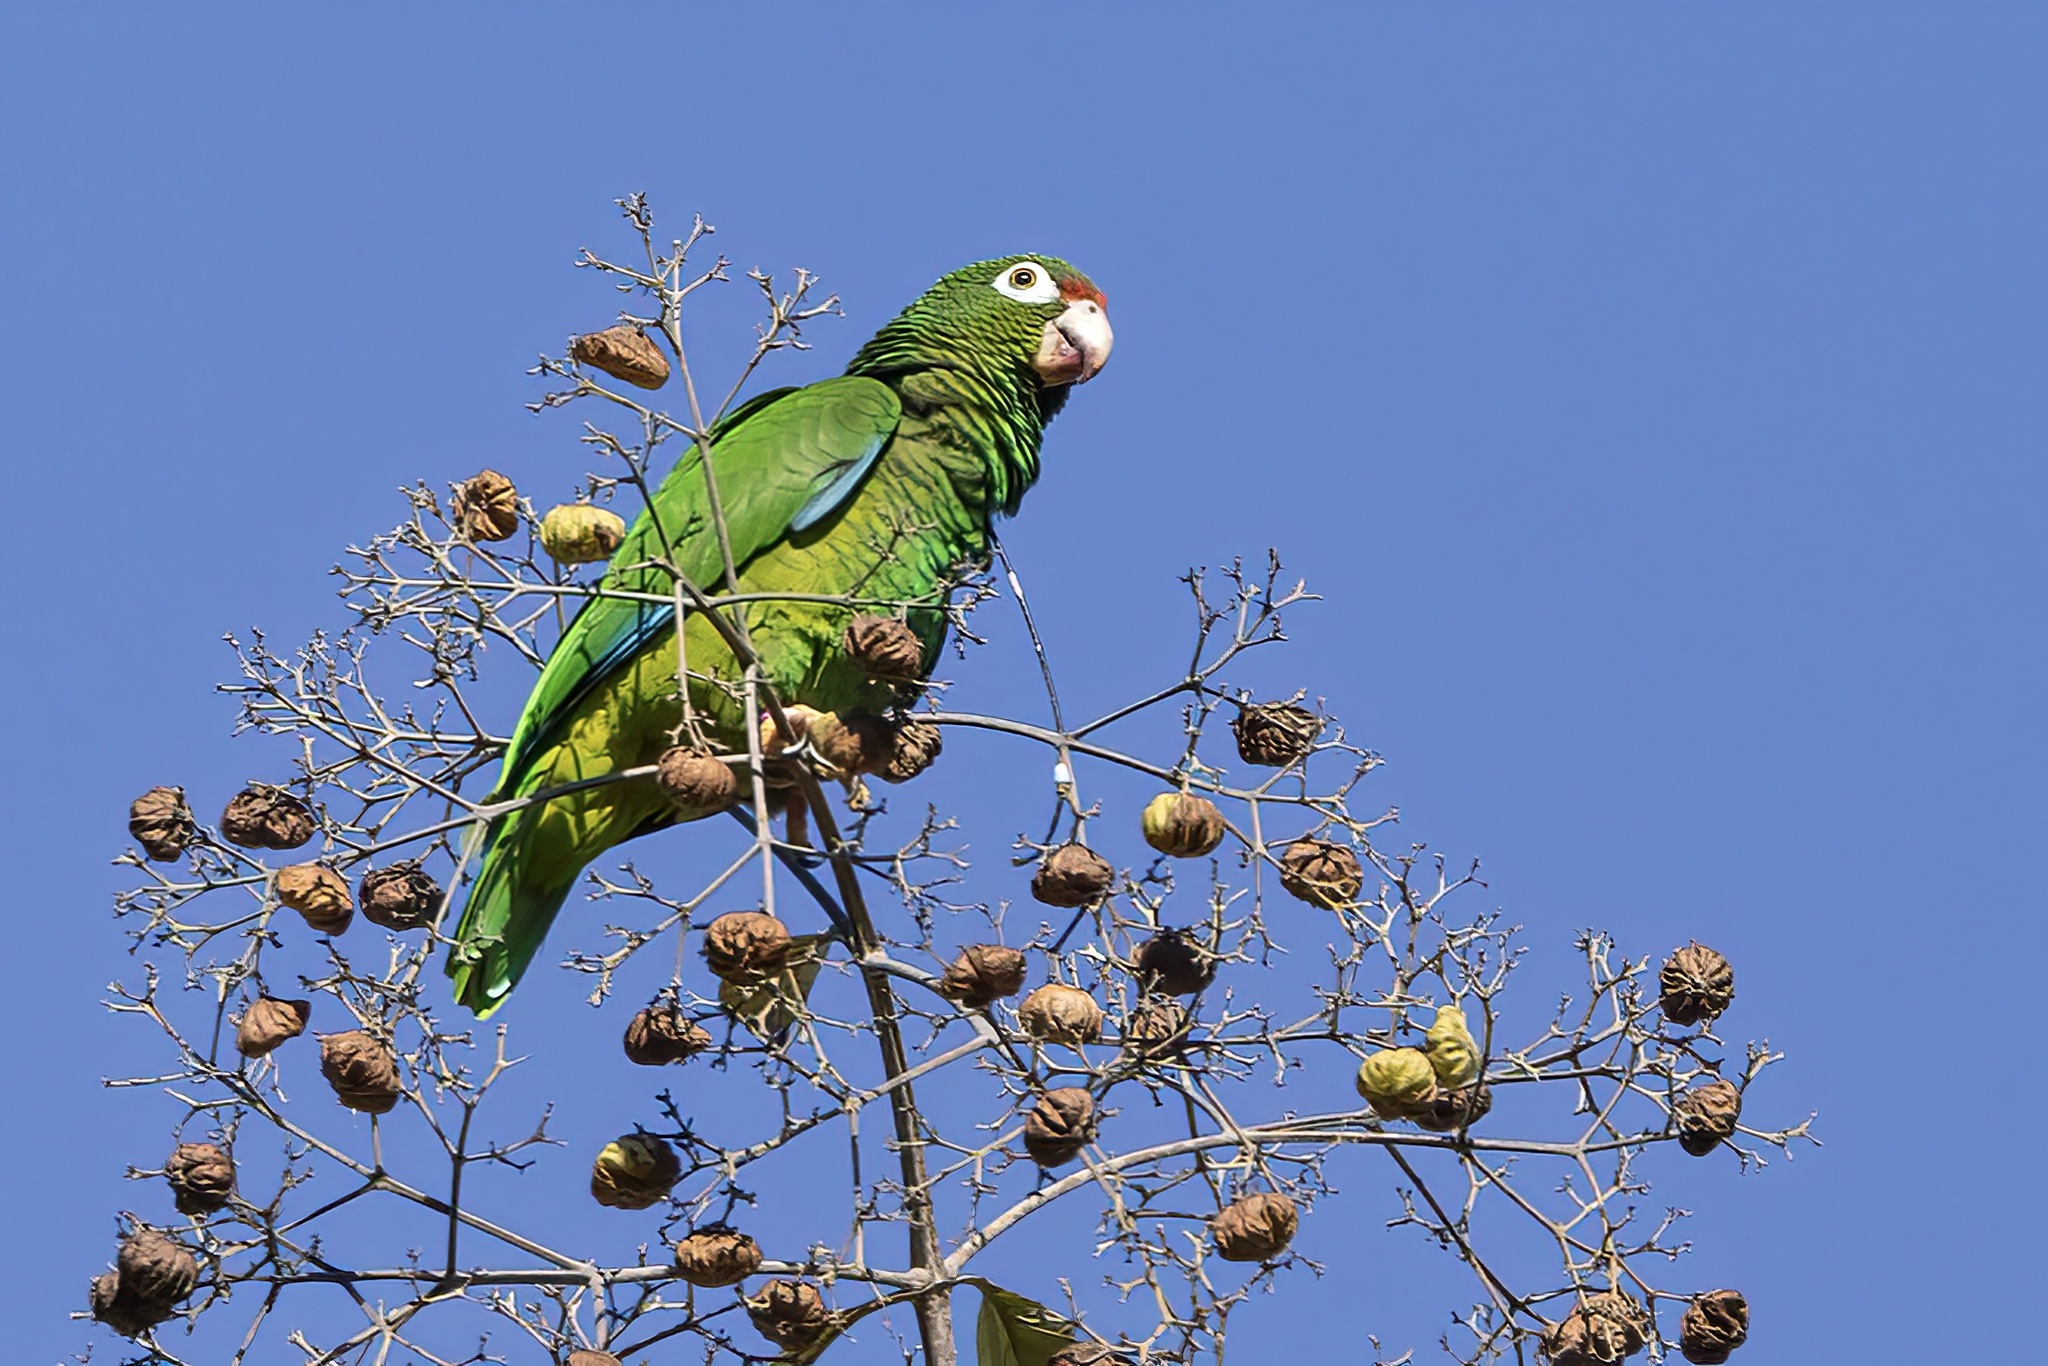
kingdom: Animalia
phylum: Chordata
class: Aves
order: Psittaciformes
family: Psittacidae
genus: Amazona
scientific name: Amazona vittata
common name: Puerto rican amazon
